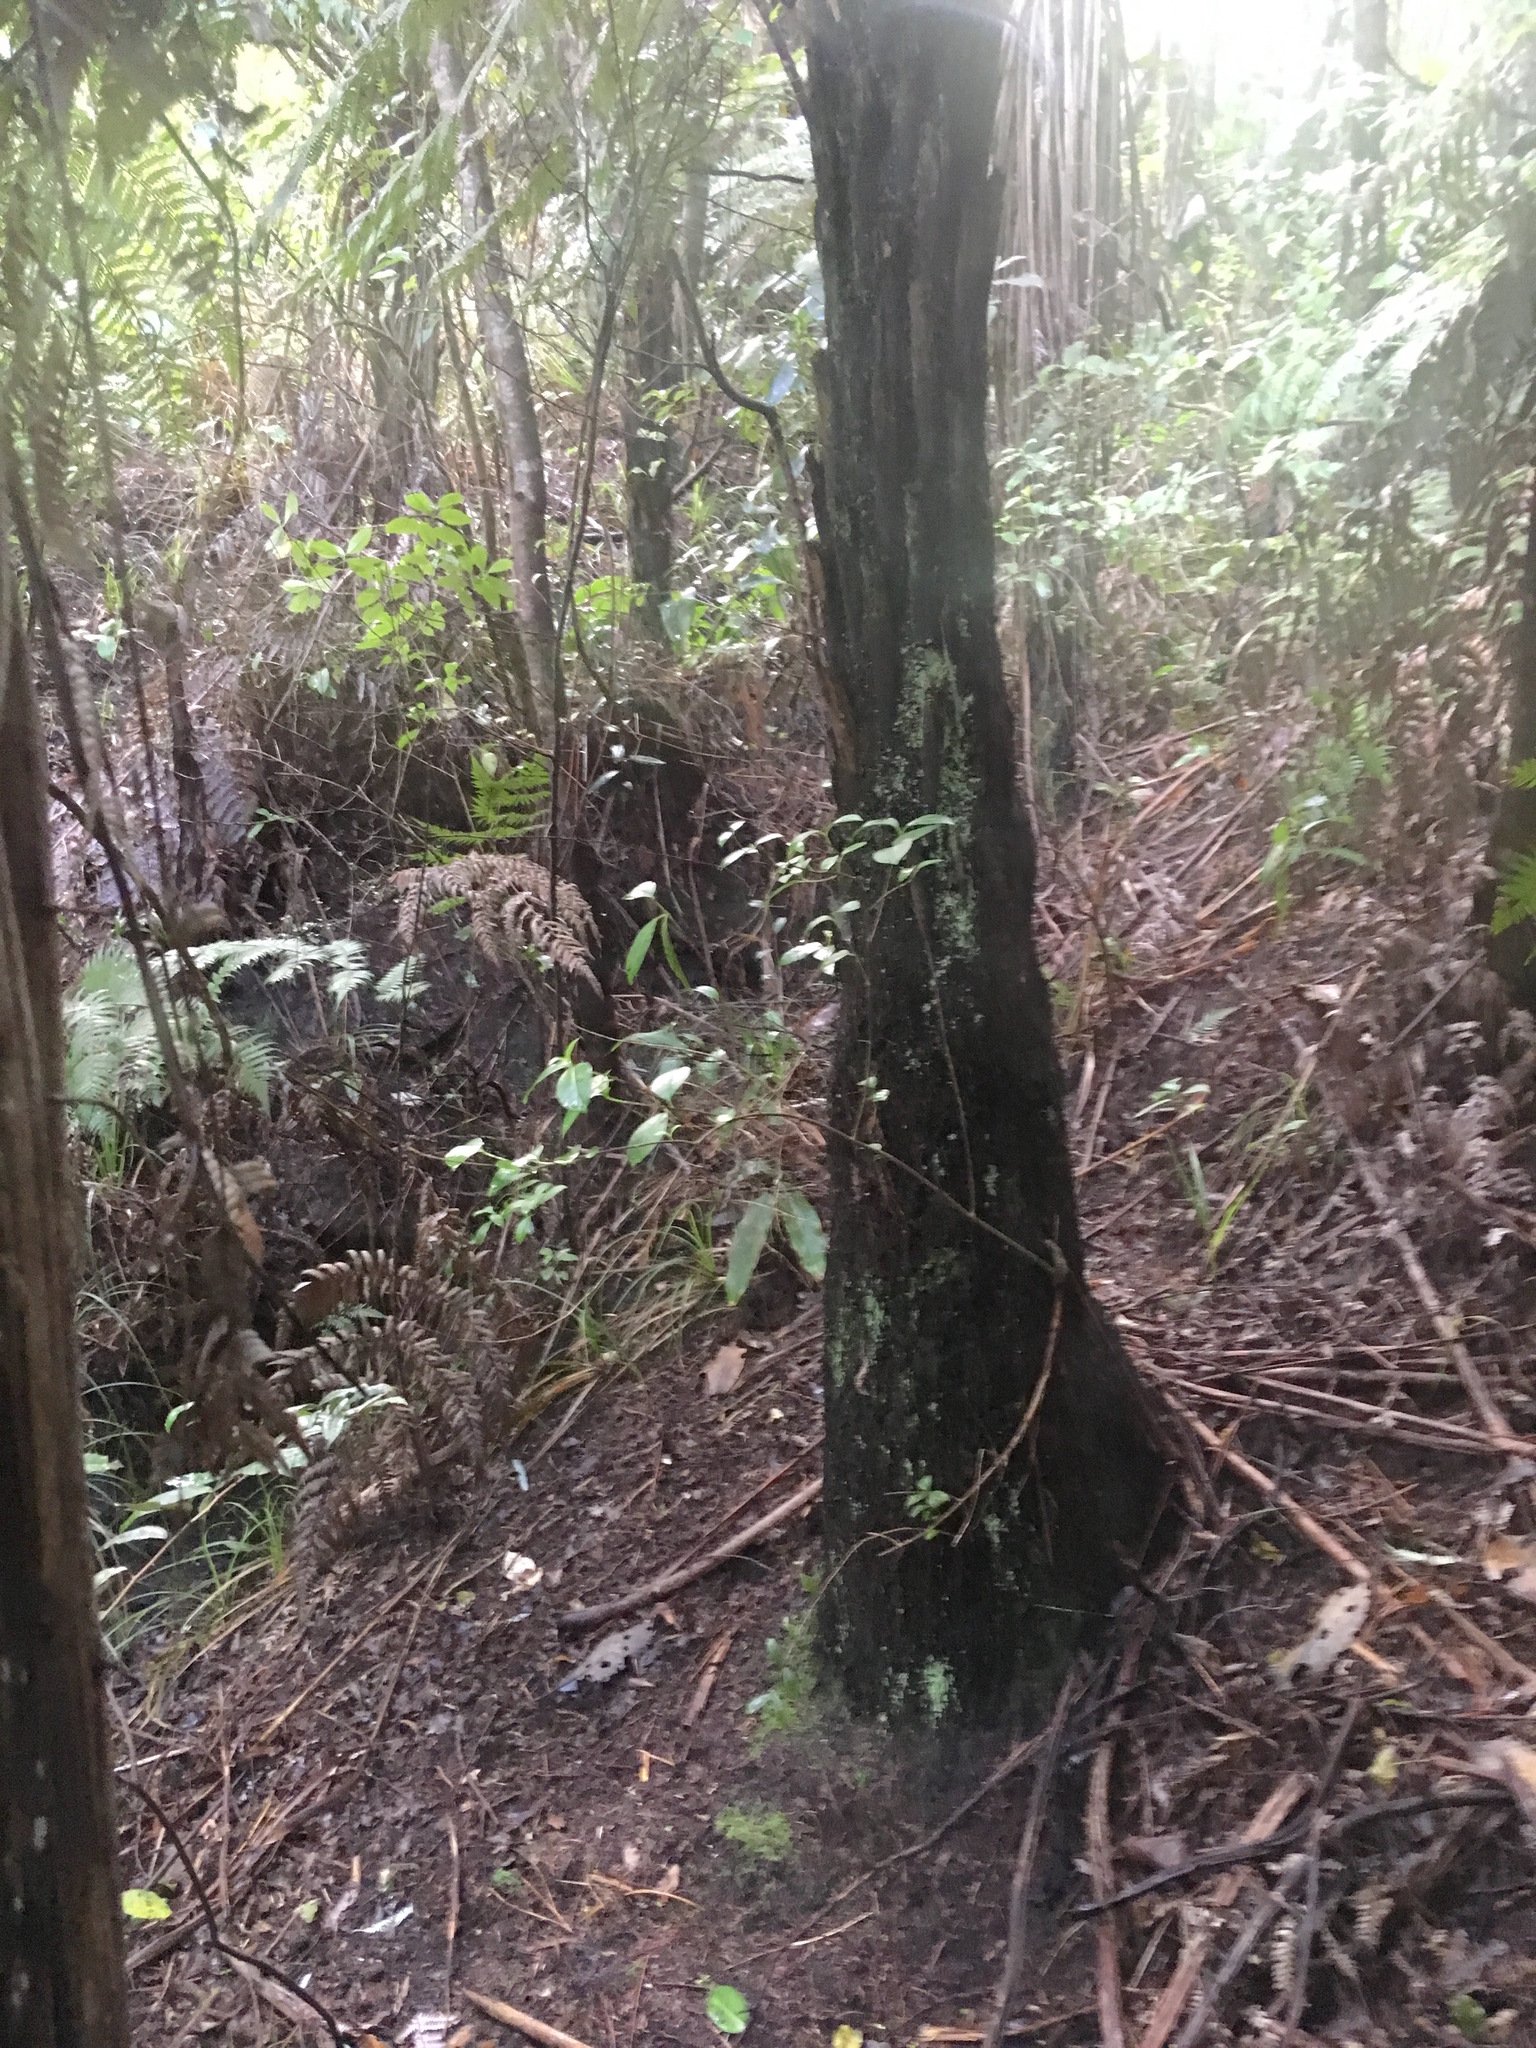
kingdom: Plantae
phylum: Tracheophyta
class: Polypodiopsida
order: Cyatheales
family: Cyatheaceae
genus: Alsophila
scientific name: Alsophila dealbata
